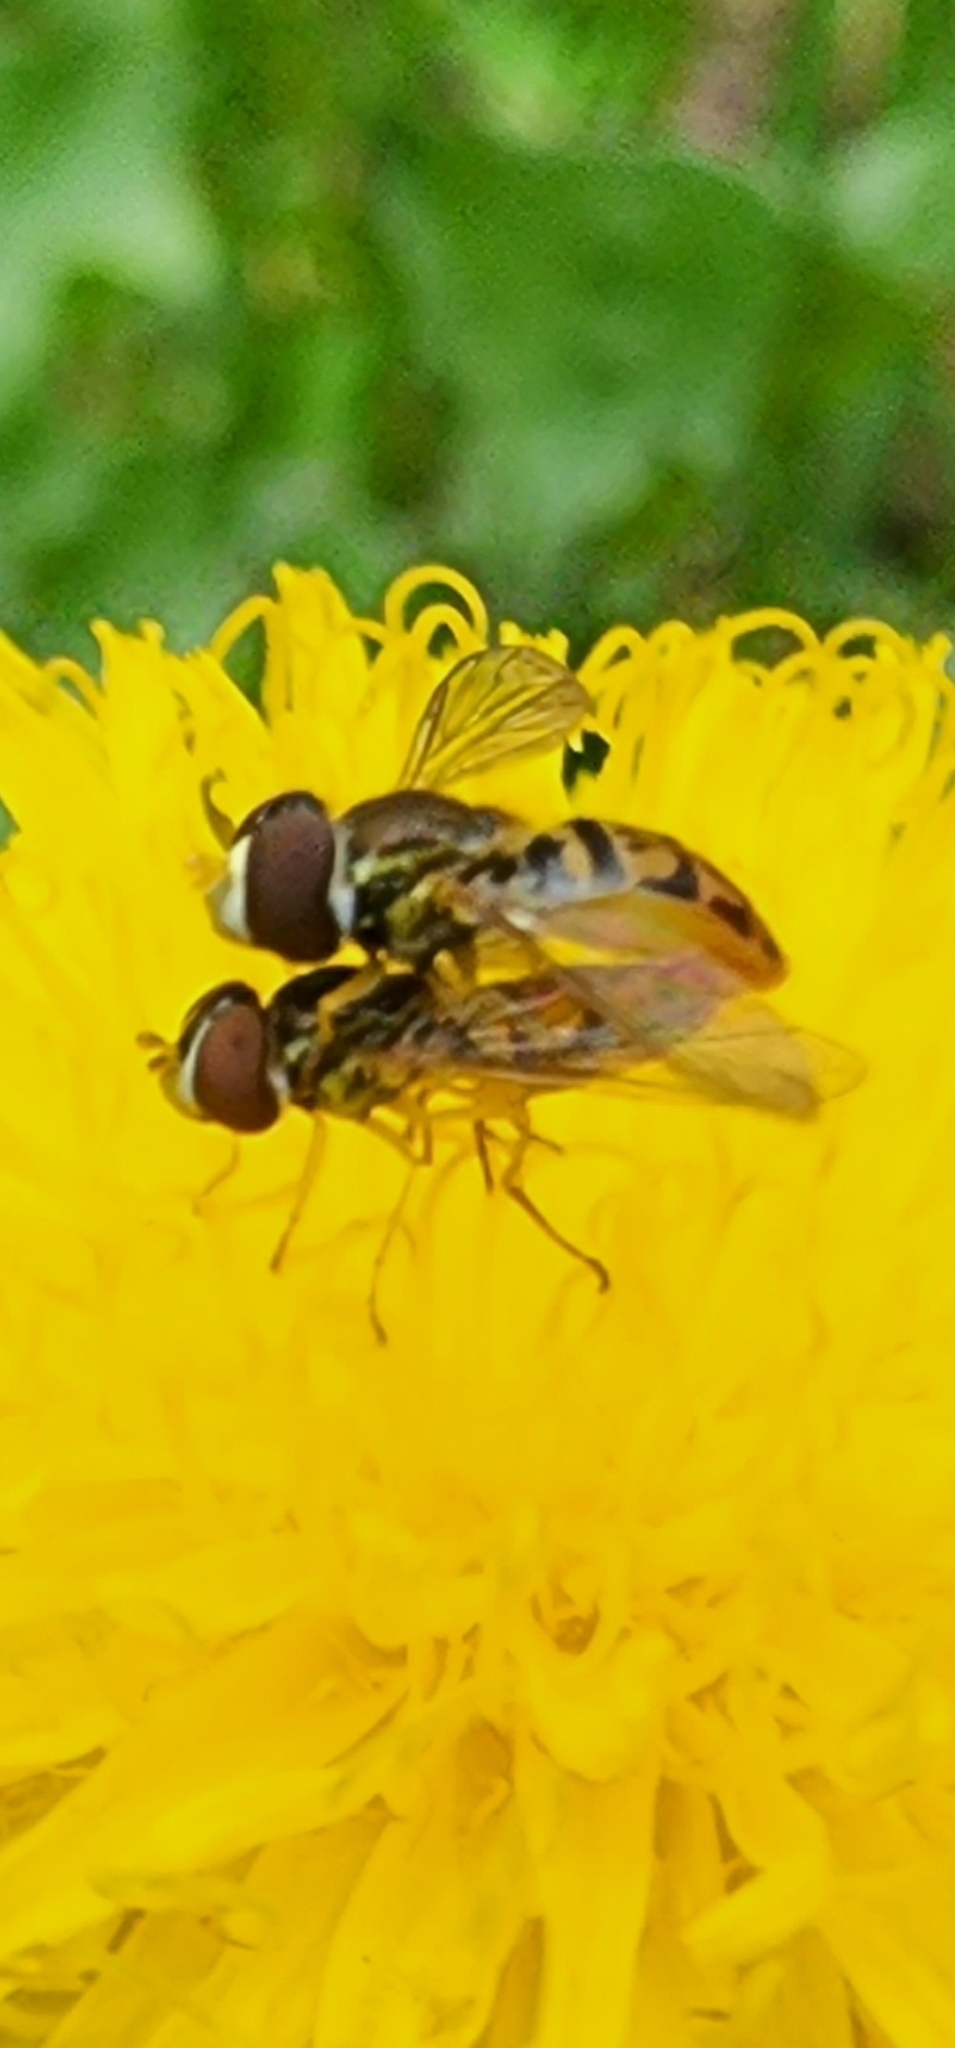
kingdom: Animalia
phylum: Arthropoda
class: Insecta
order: Diptera
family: Syrphidae
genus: Toxomerus
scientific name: Toxomerus marginatus
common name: Syrphid fly
